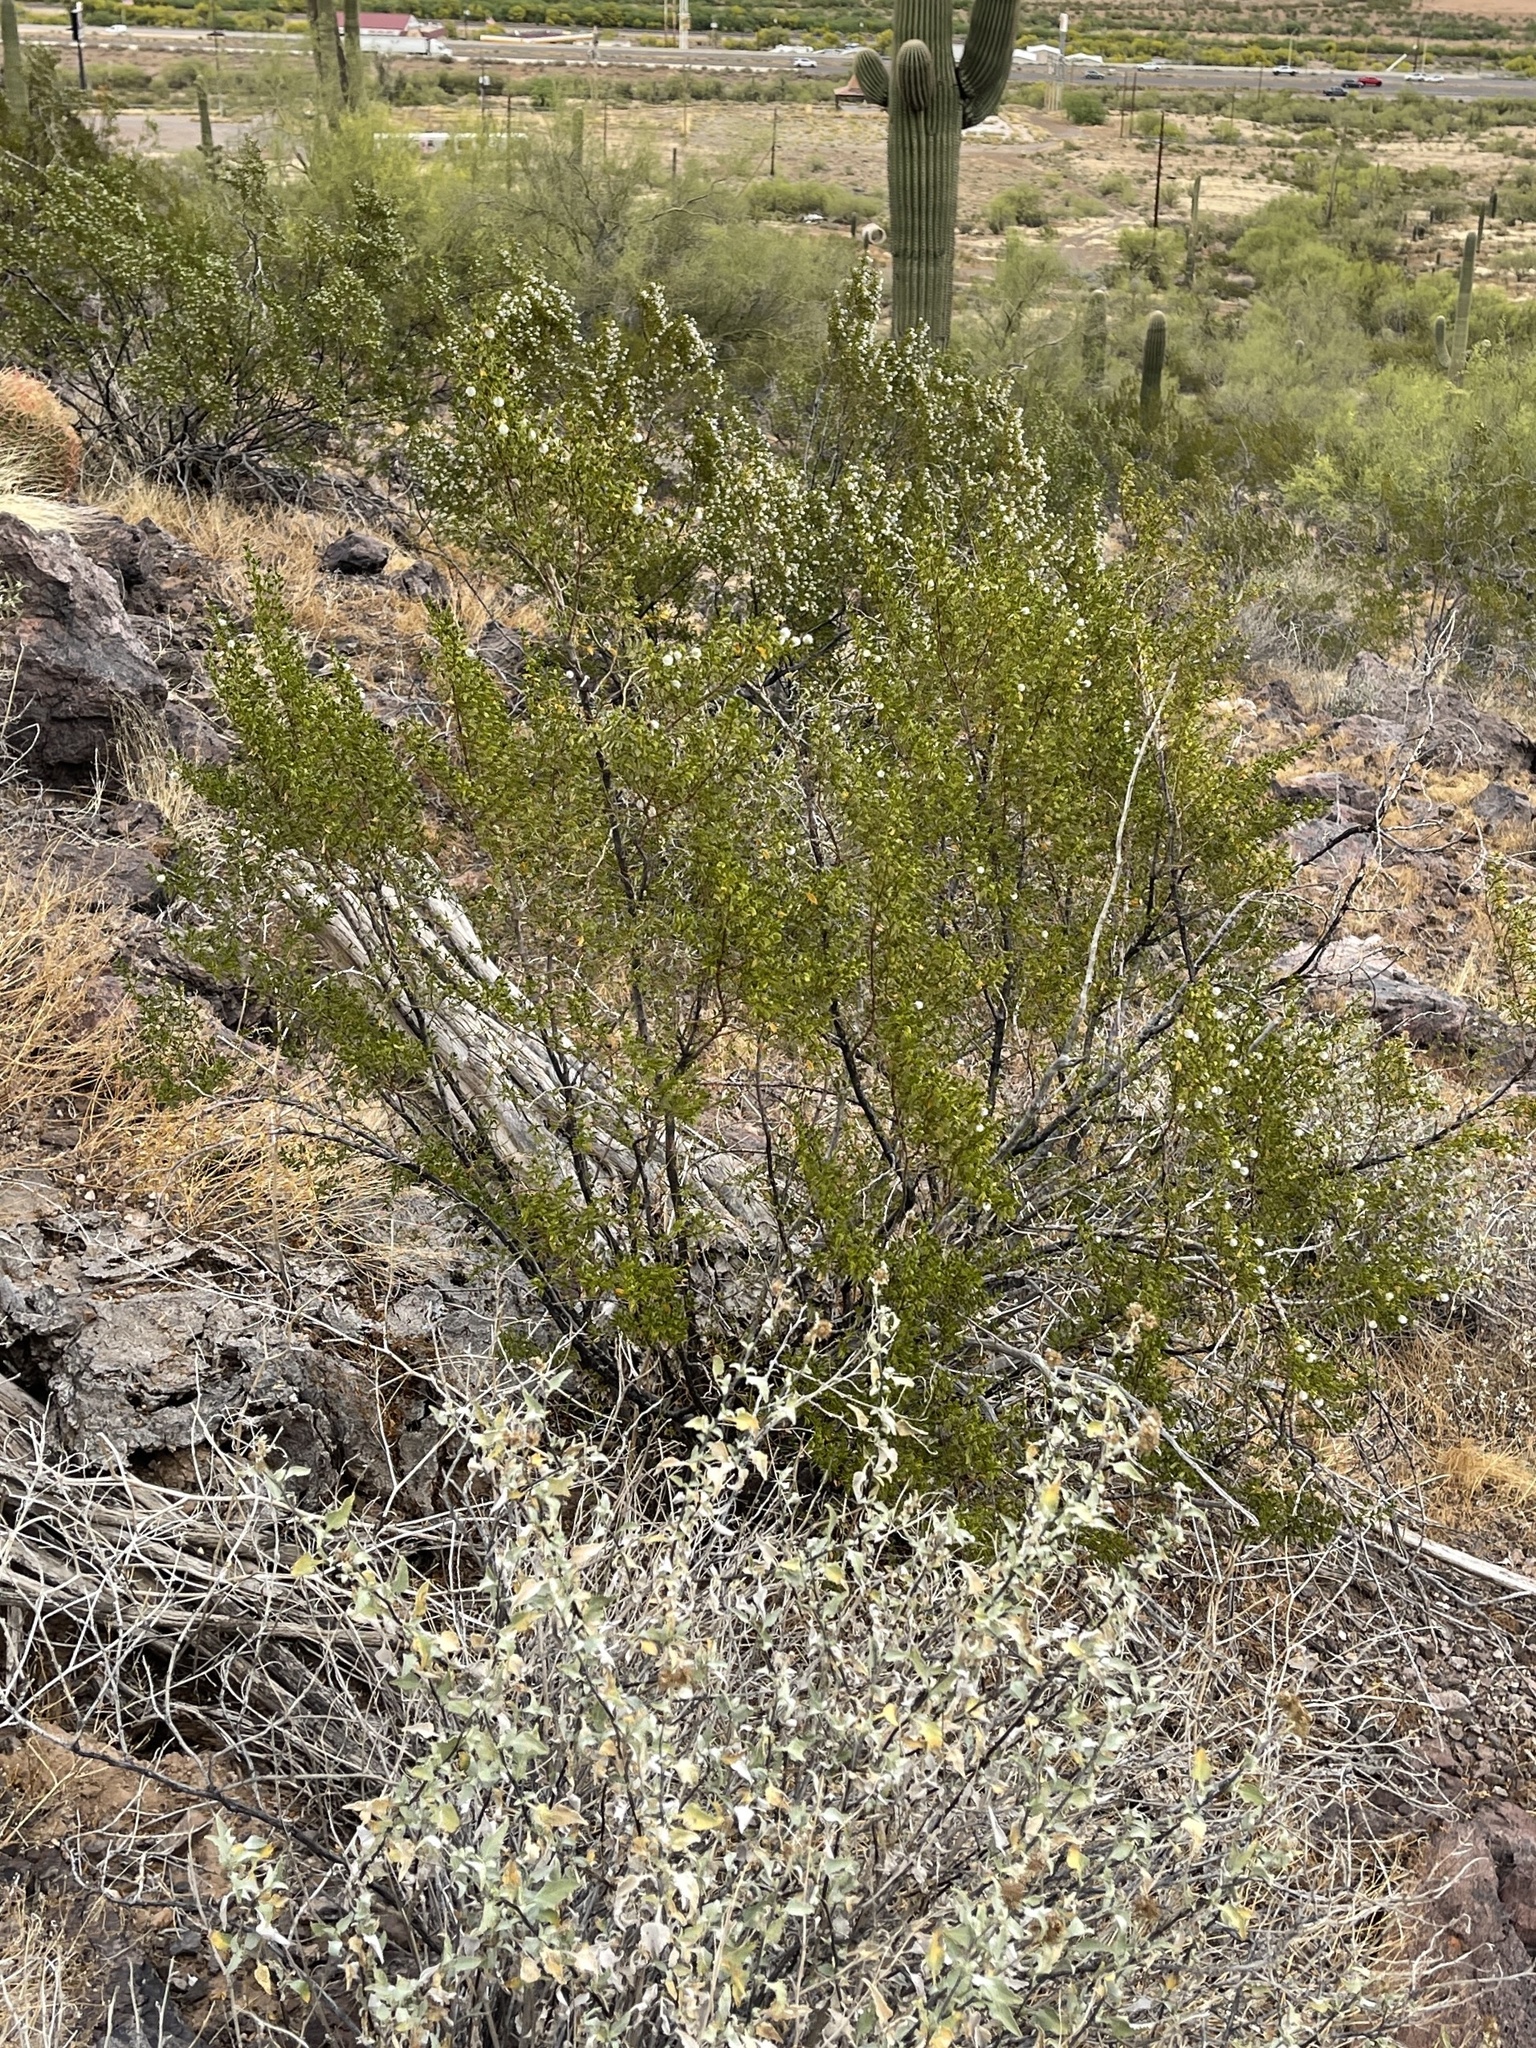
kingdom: Plantae
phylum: Tracheophyta
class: Magnoliopsida
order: Zygophyllales
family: Zygophyllaceae
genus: Larrea
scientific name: Larrea tridentata
